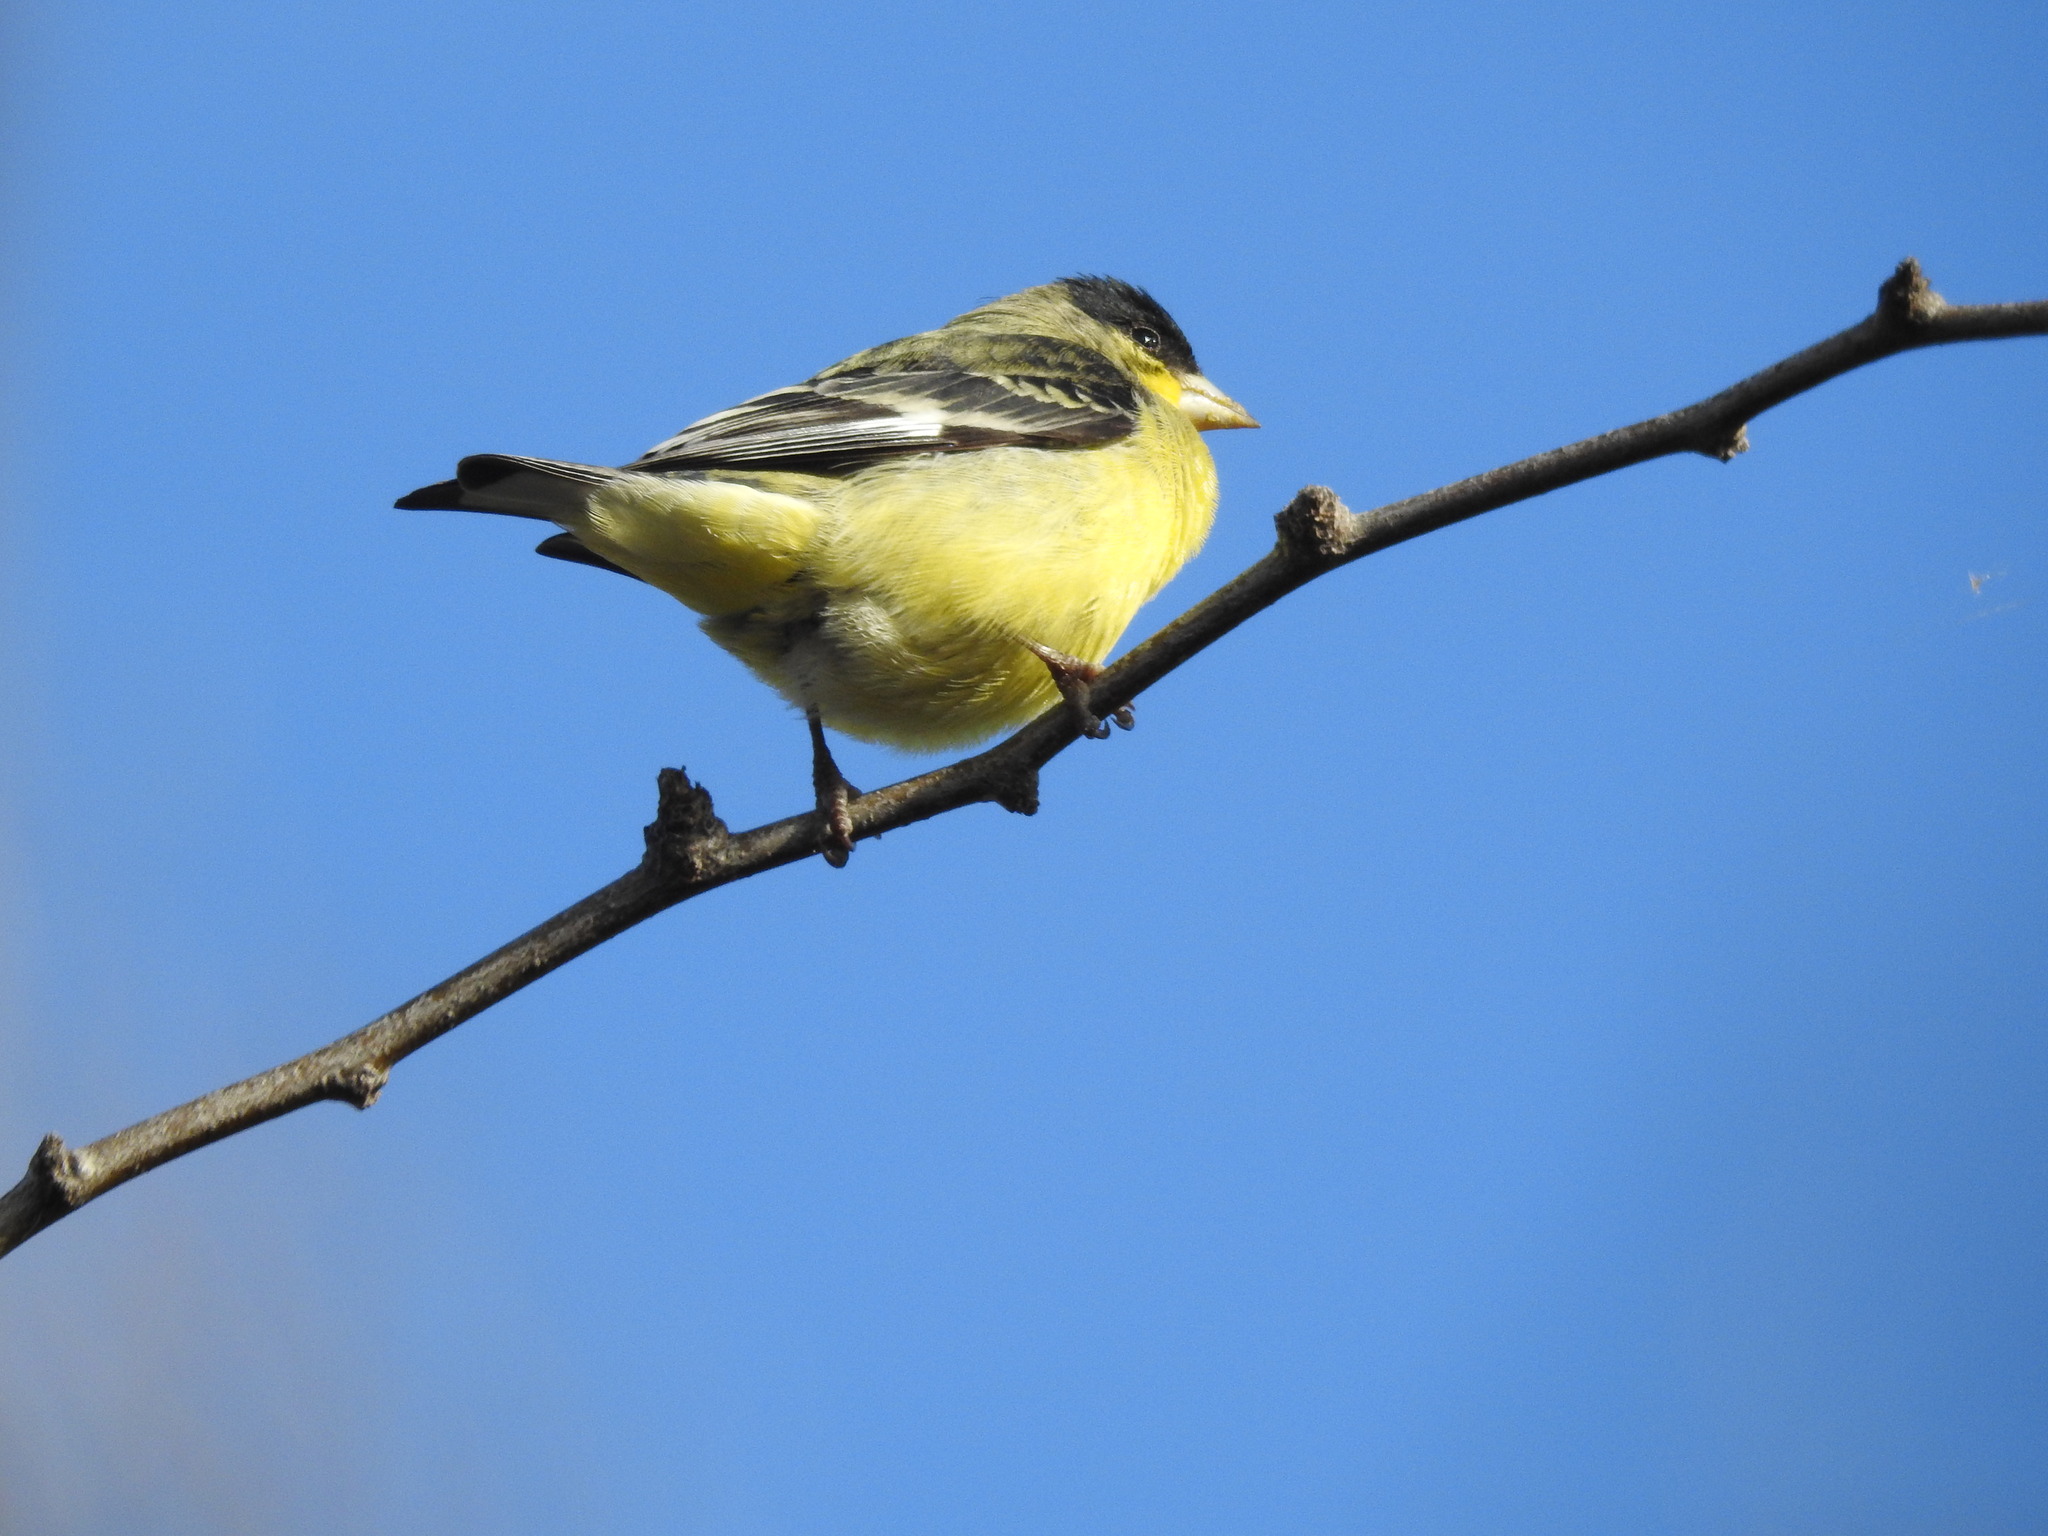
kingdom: Animalia
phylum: Chordata
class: Aves
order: Passeriformes
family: Fringillidae
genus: Spinus
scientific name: Spinus psaltria
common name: Lesser goldfinch
